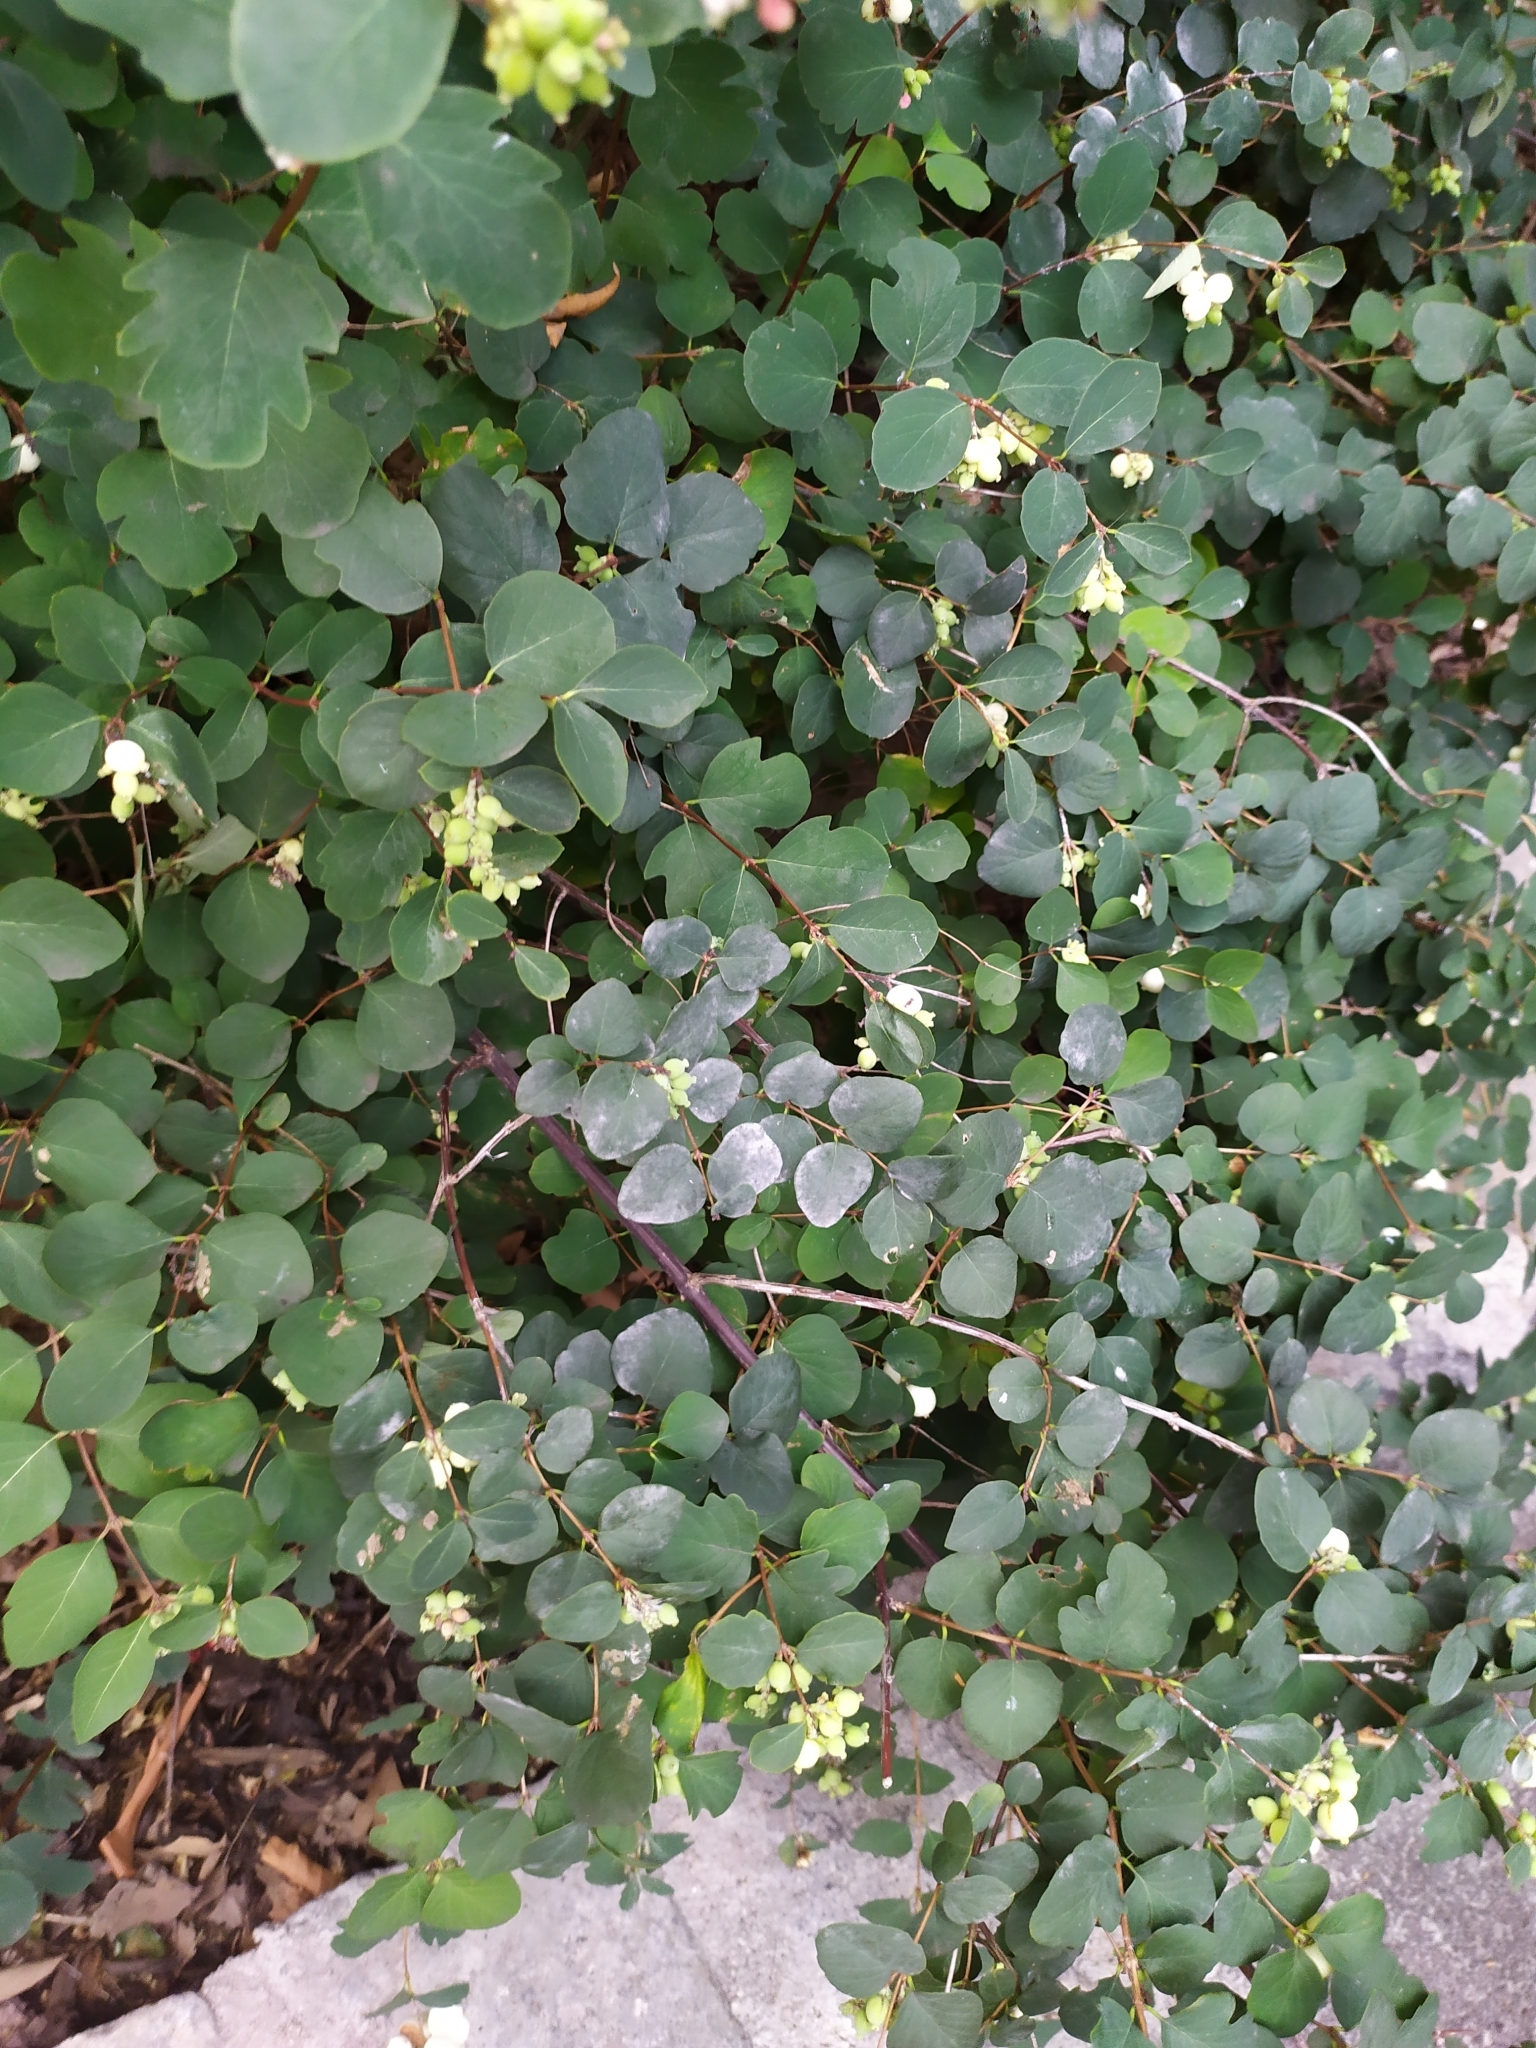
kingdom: Fungi
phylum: Ascomycota
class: Leotiomycetes
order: Helotiales
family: Erysiphaceae
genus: Erysiphe
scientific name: Erysiphe symphoricarpi
